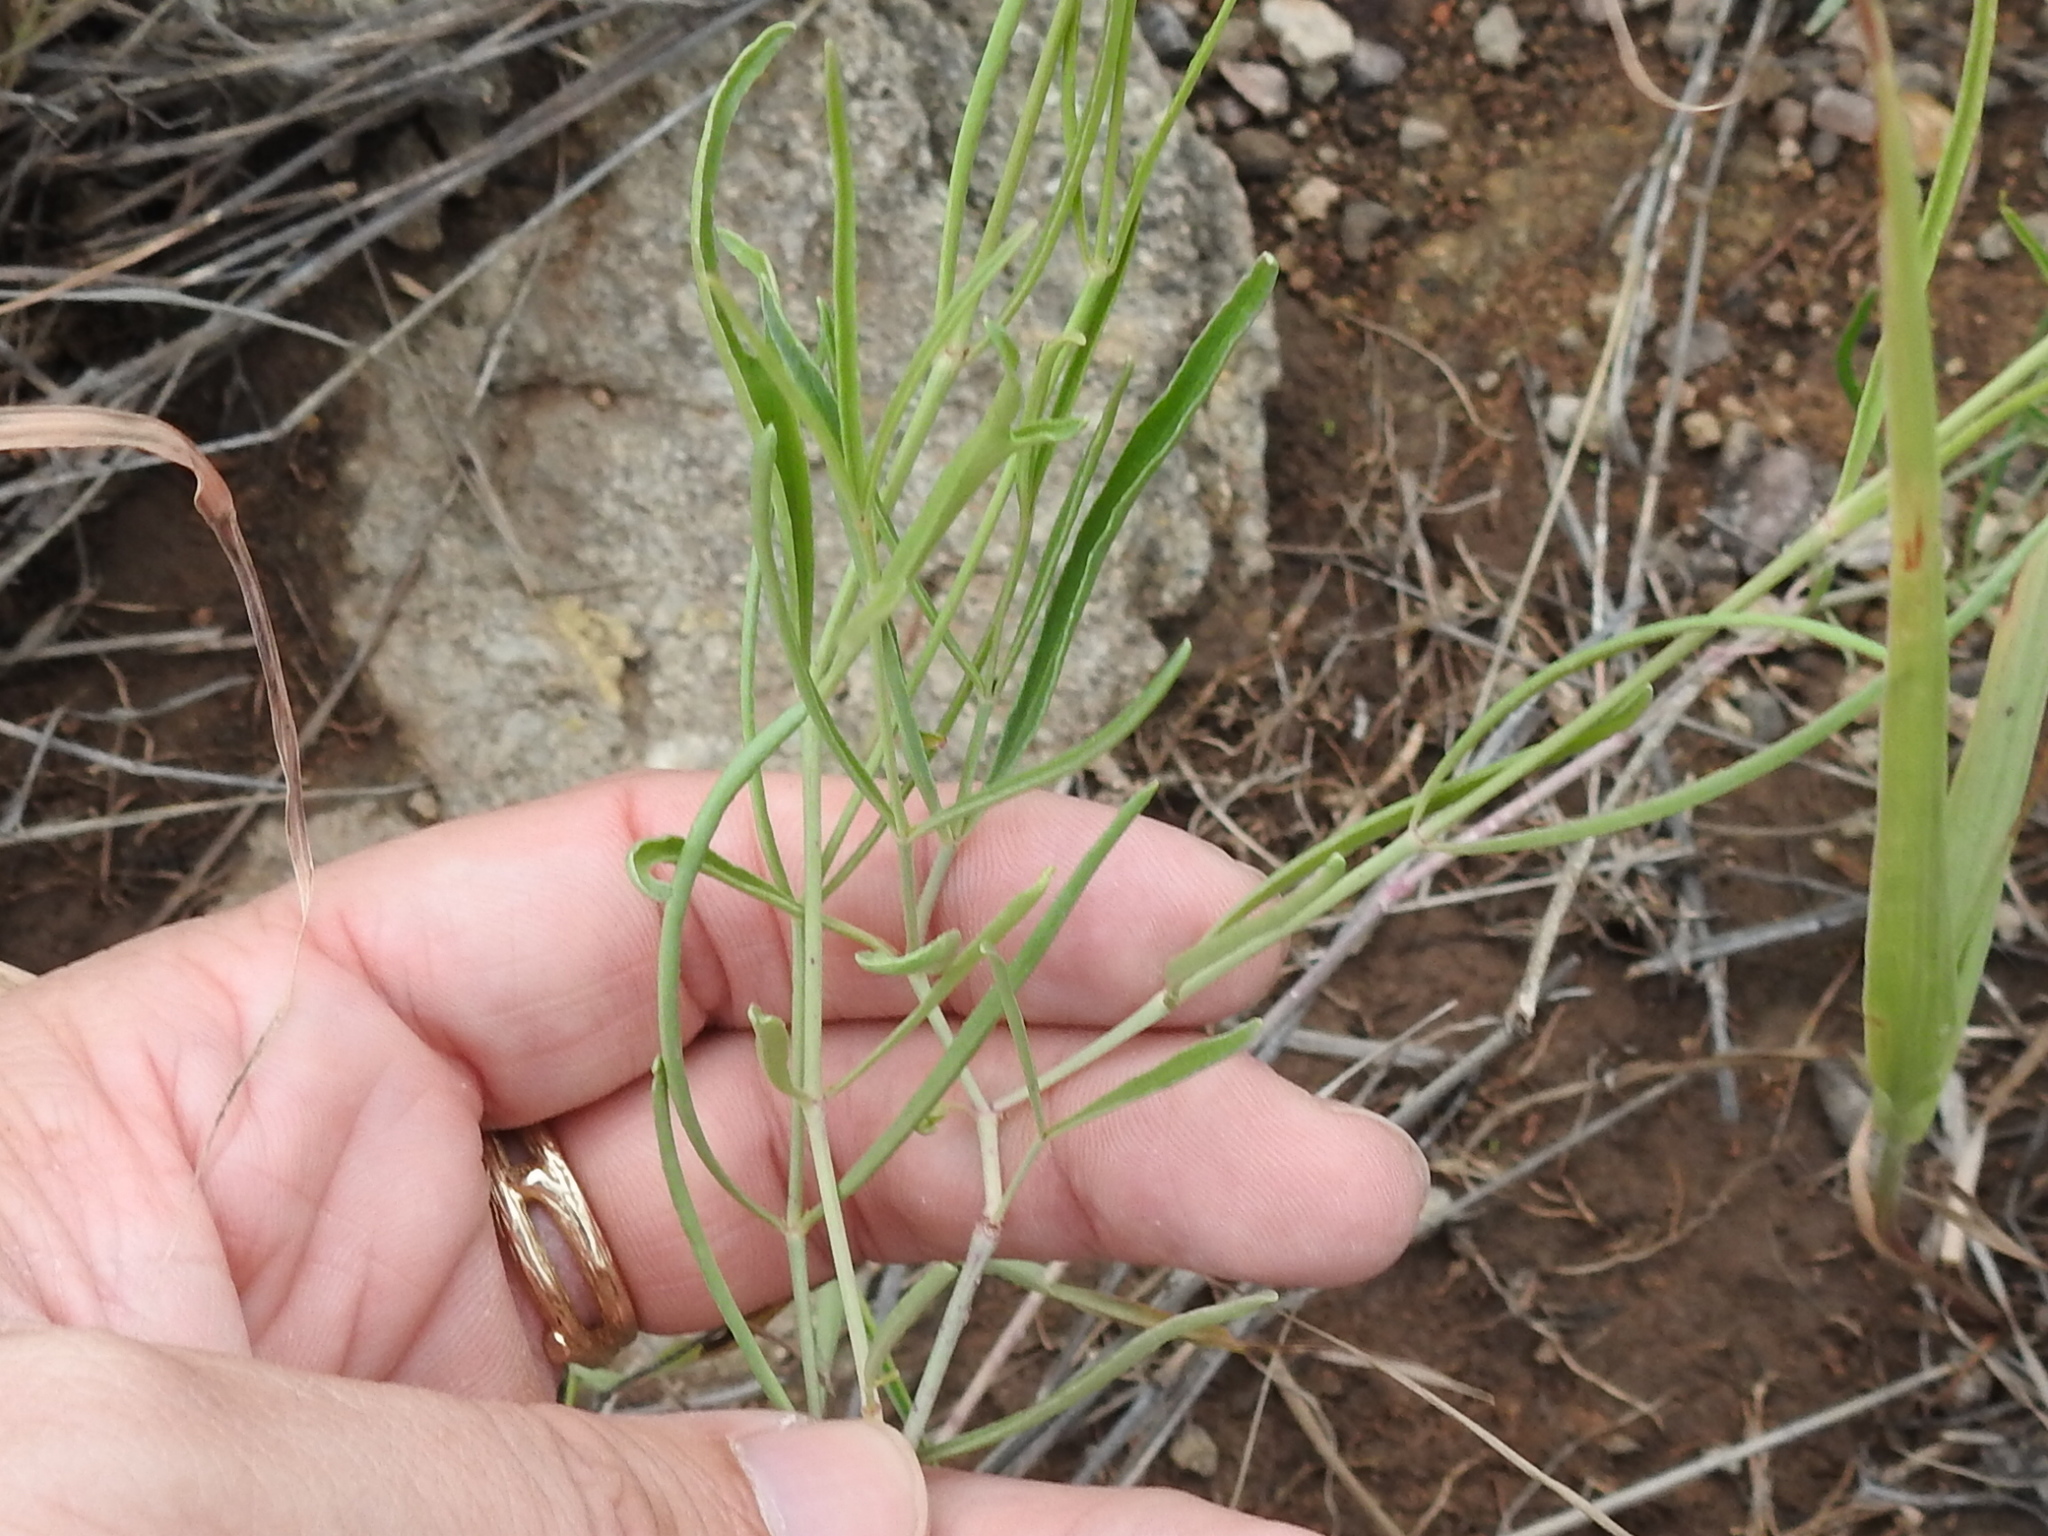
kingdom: Plantae
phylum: Tracheophyta
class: Magnoliopsida
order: Caryophyllales
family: Nyctaginaceae
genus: Mirabilis
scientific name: Mirabilis linearis
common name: Linear-leaved four-o'clock
